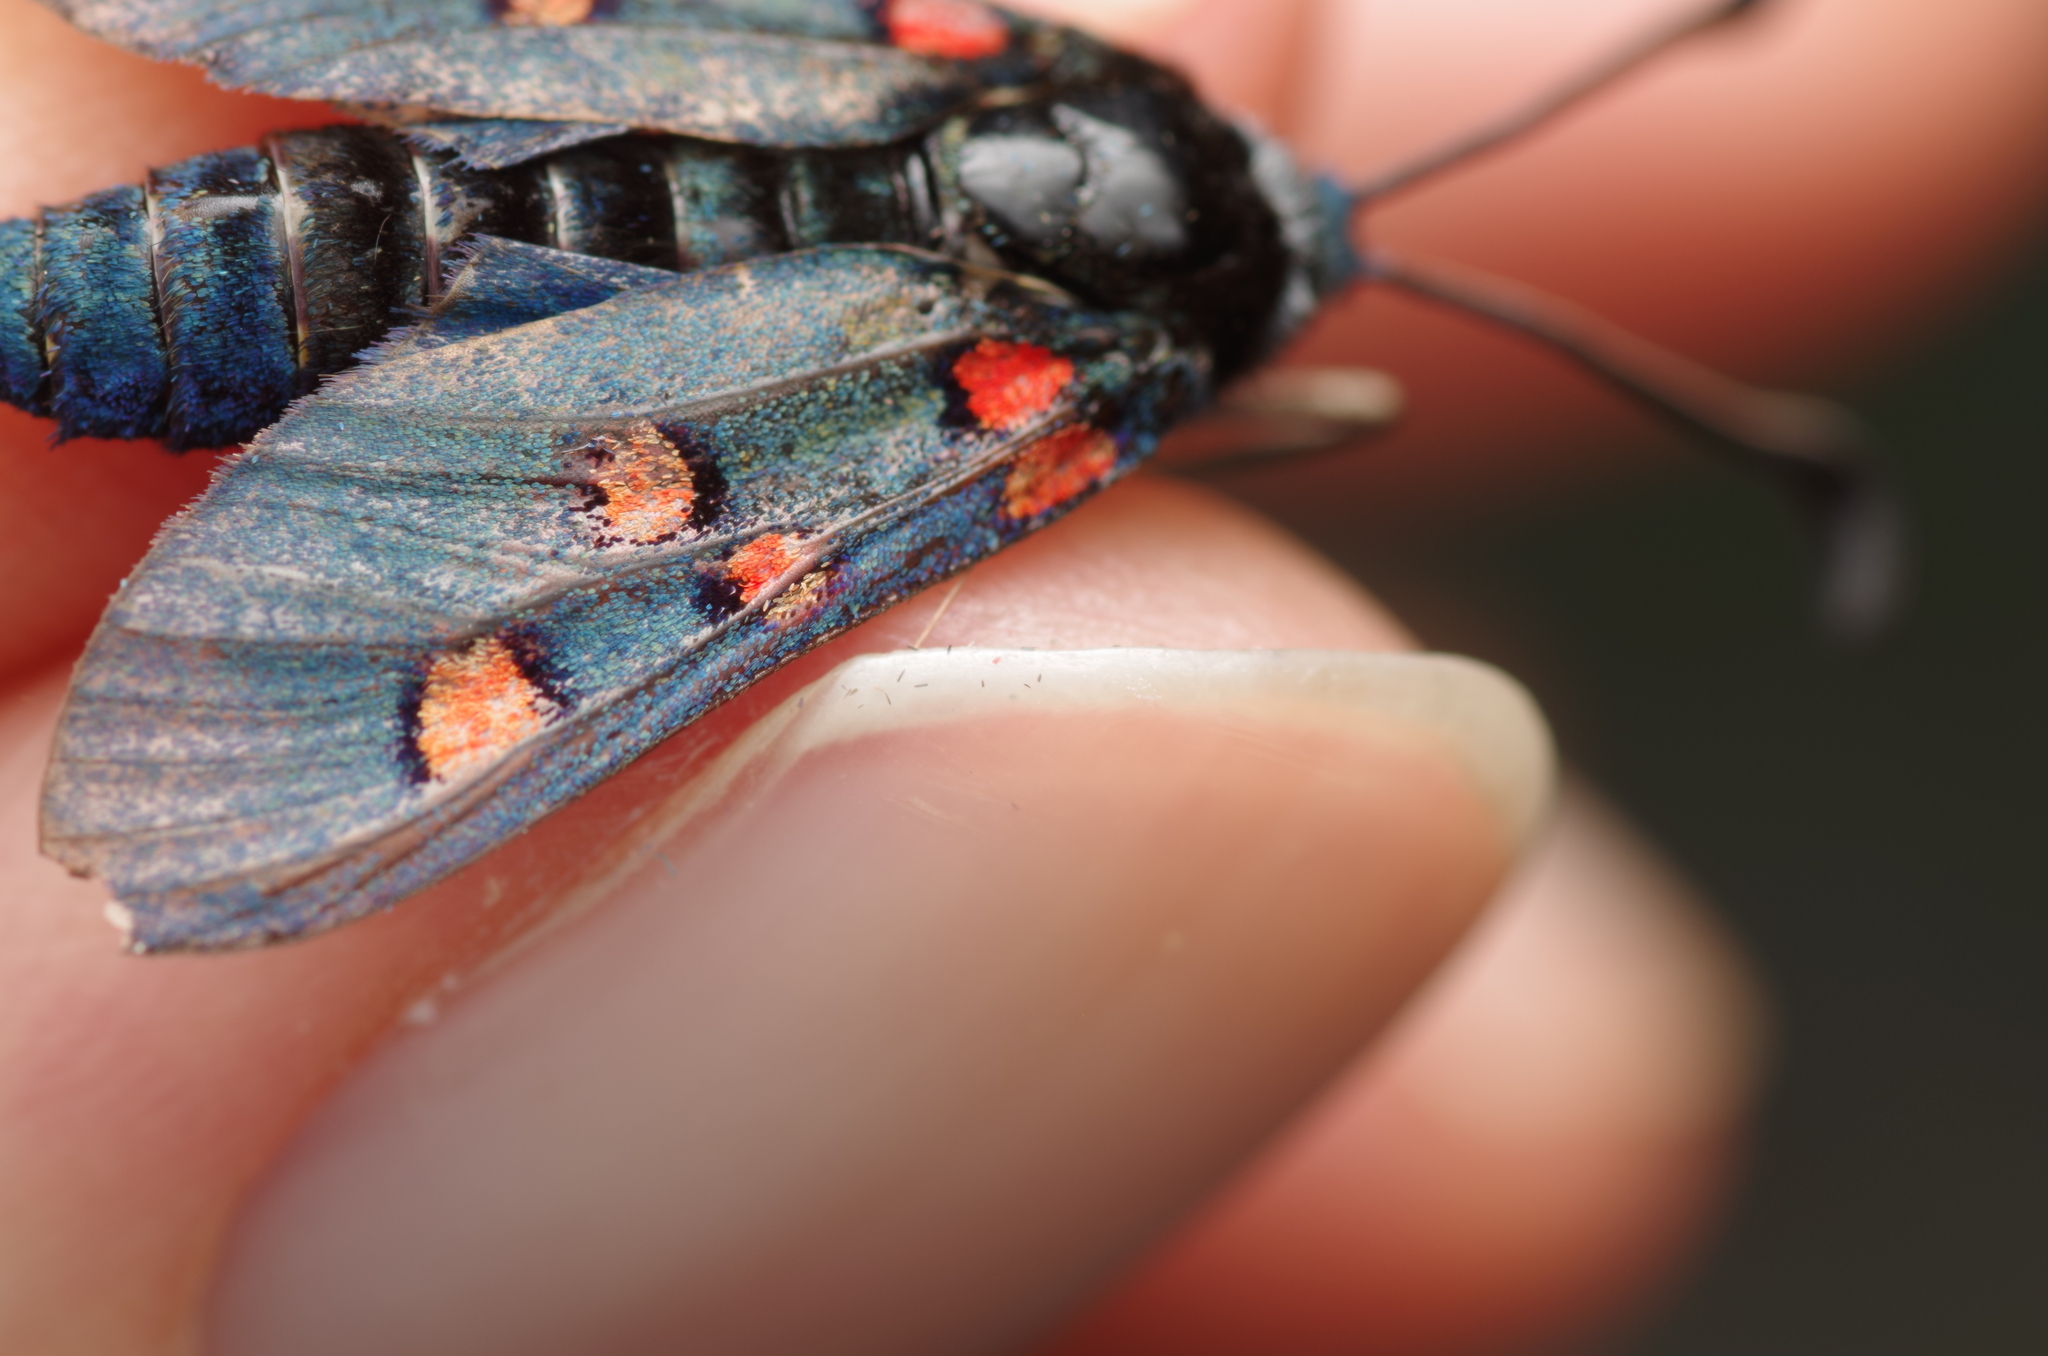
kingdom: Animalia
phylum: Arthropoda
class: Insecta
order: Lepidoptera
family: Zygaenidae
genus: Zygaena
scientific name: Zygaena lavandulae
